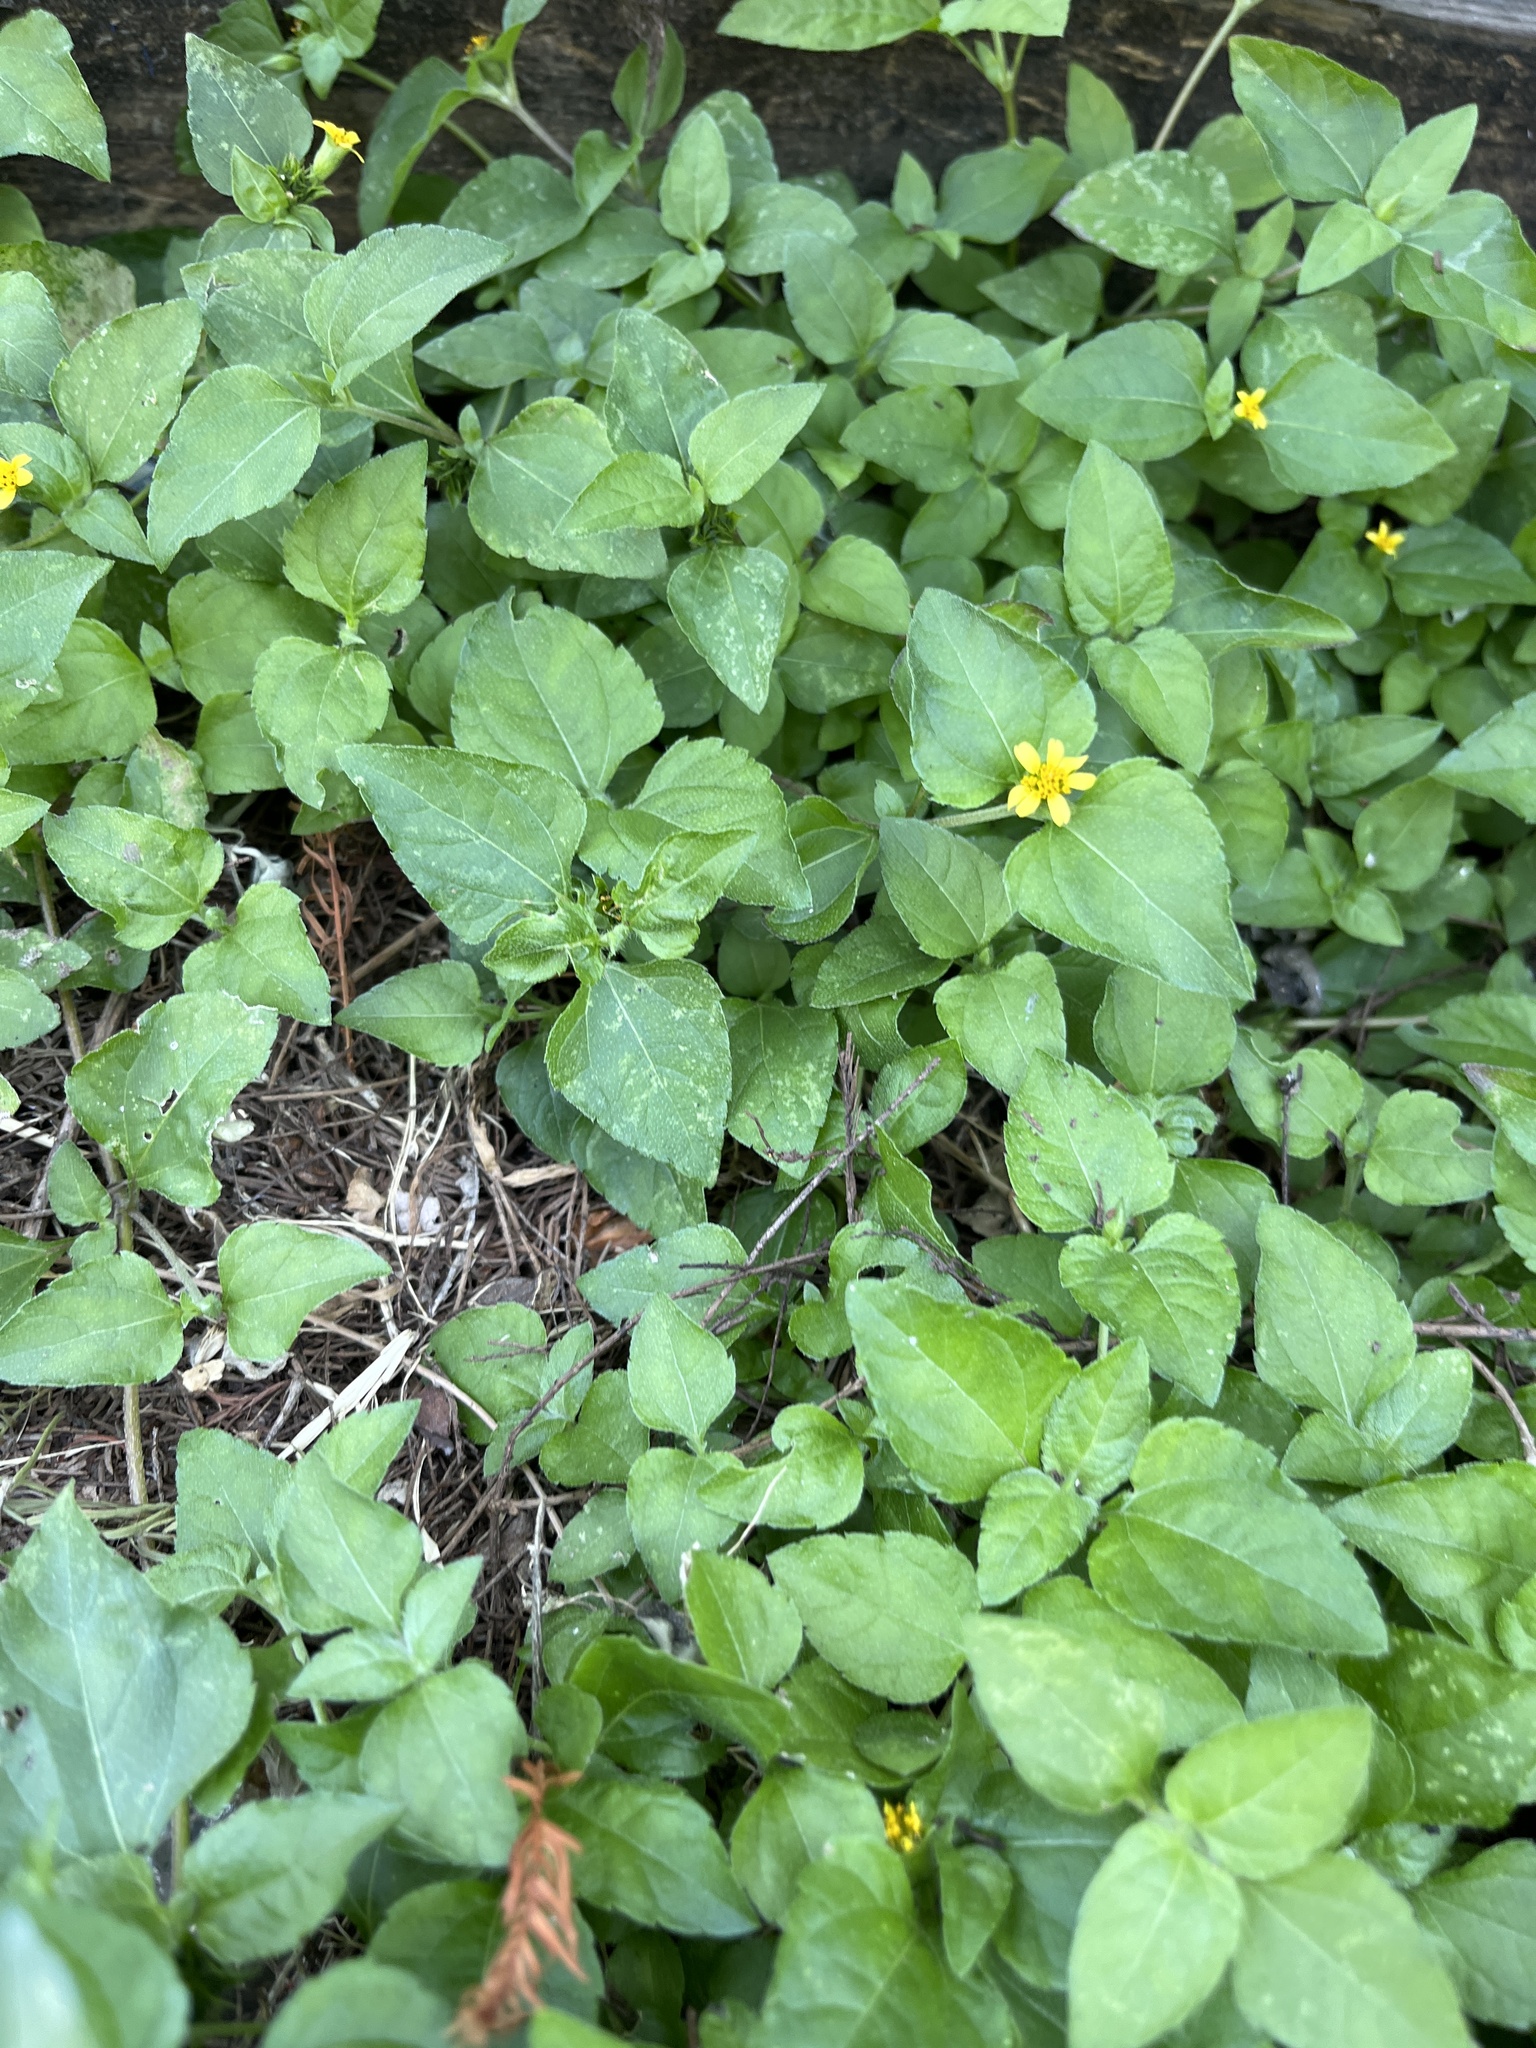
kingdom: Plantae
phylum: Tracheophyta
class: Magnoliopsida
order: Asterales
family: Asteraceae
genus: Calyptocarpus
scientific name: Calyptocarpus vialis
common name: Straggler daisy
